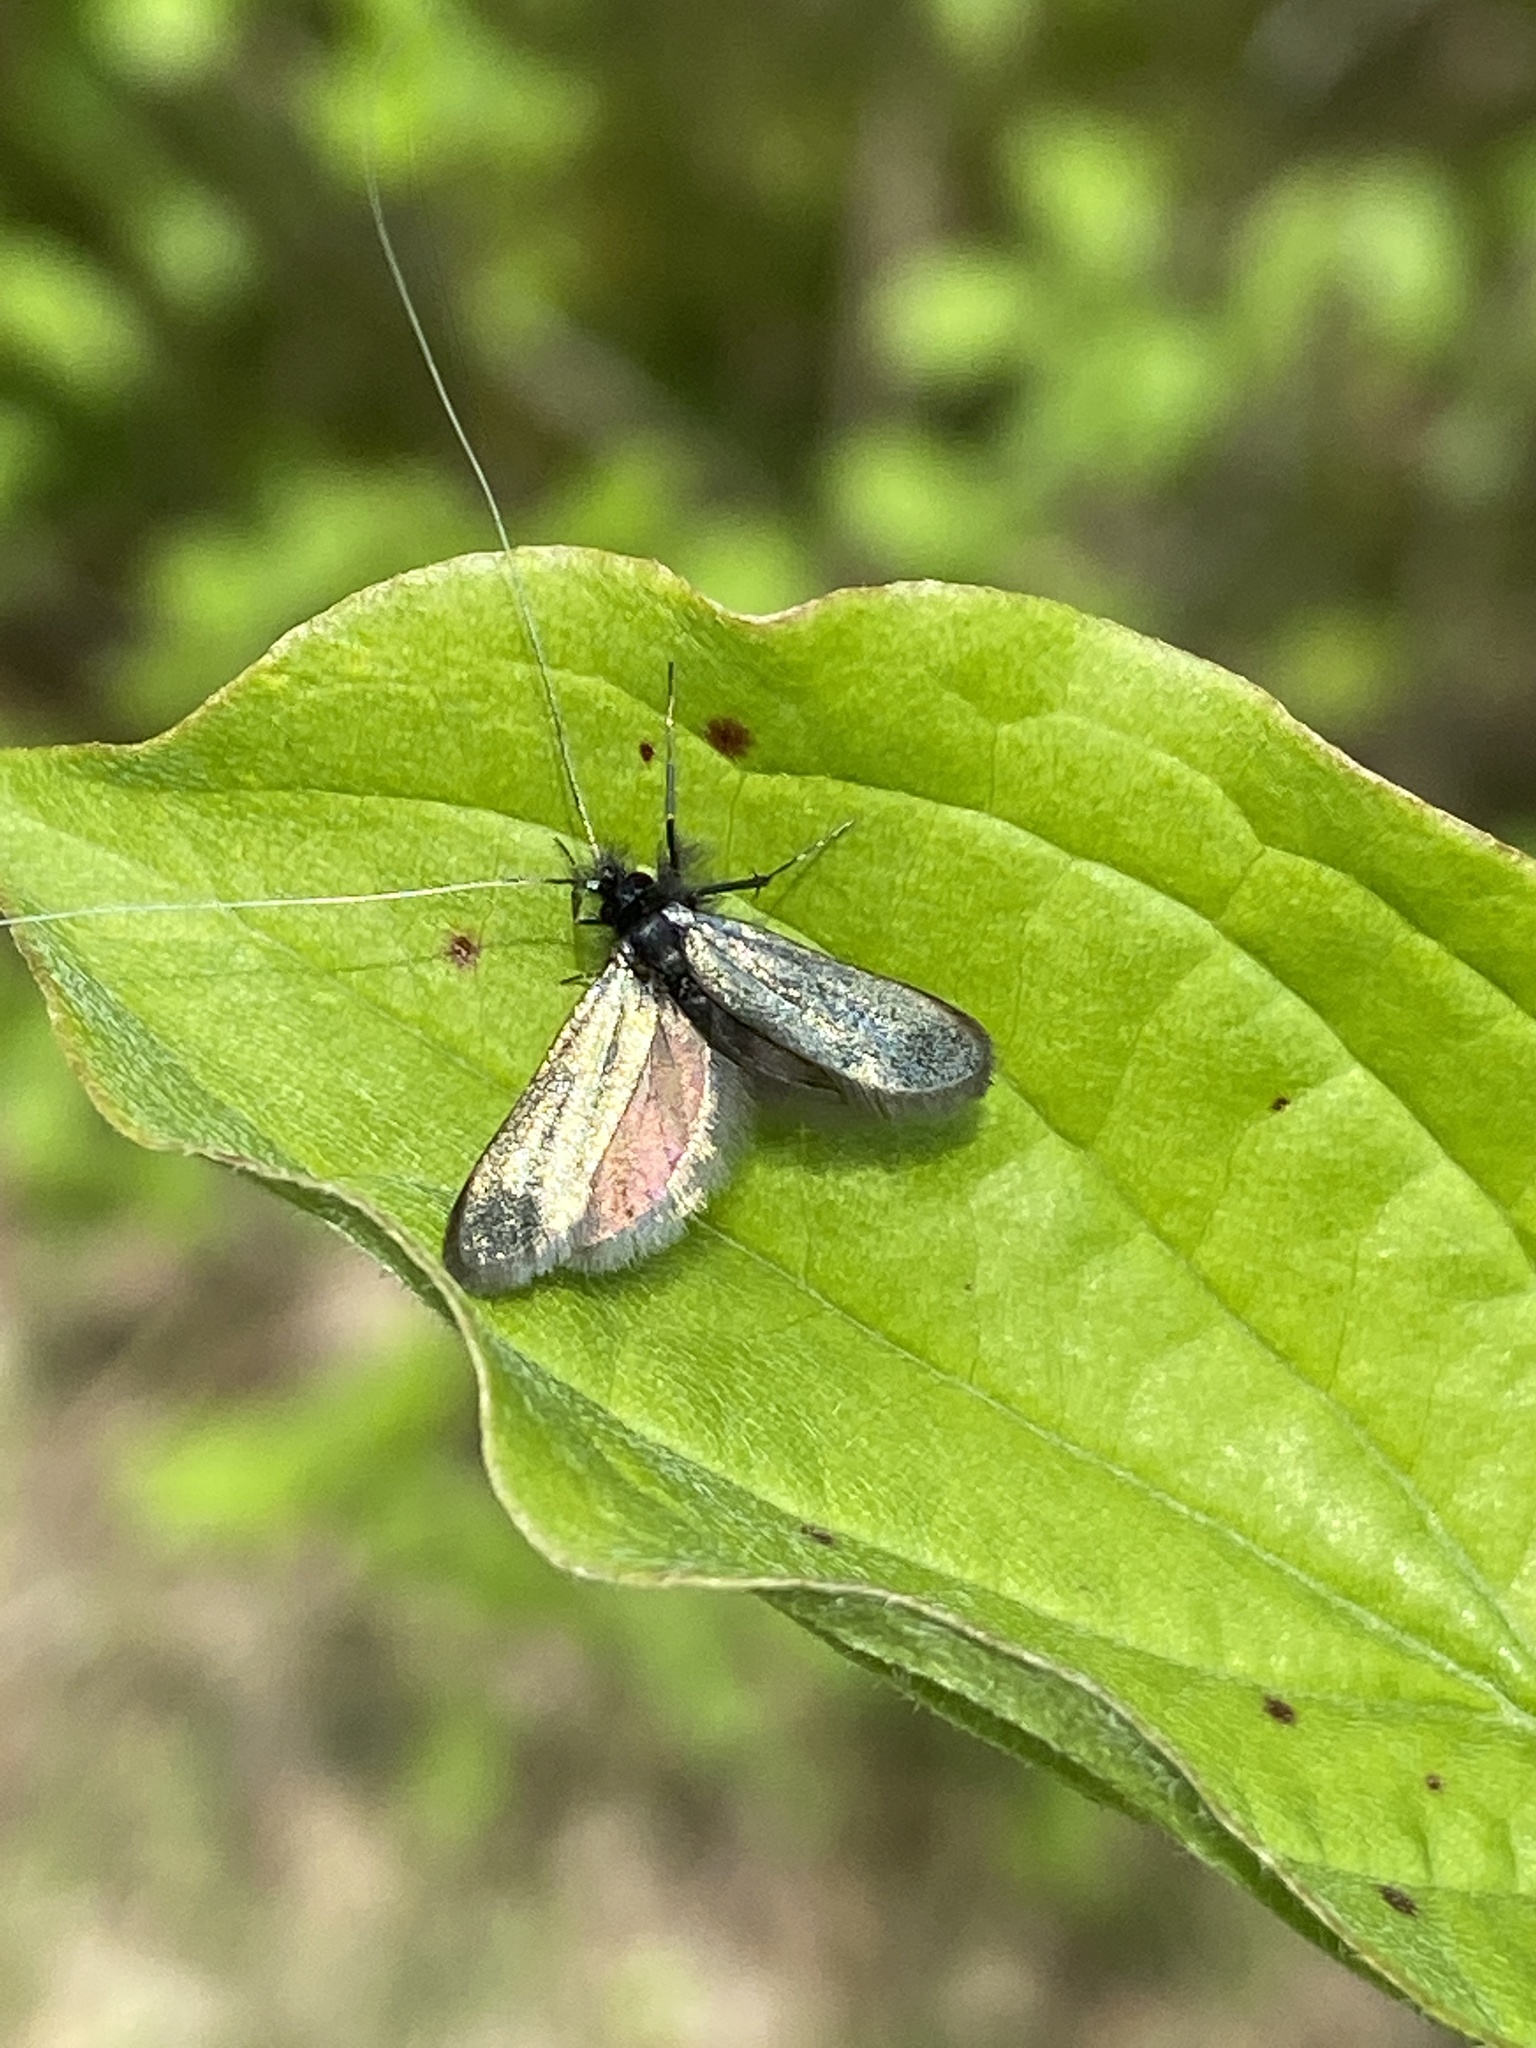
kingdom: Animalia
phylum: Arthropoda
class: Insecta
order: Lepidoptera
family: Adelidae
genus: Adela
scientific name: Adela viridella
